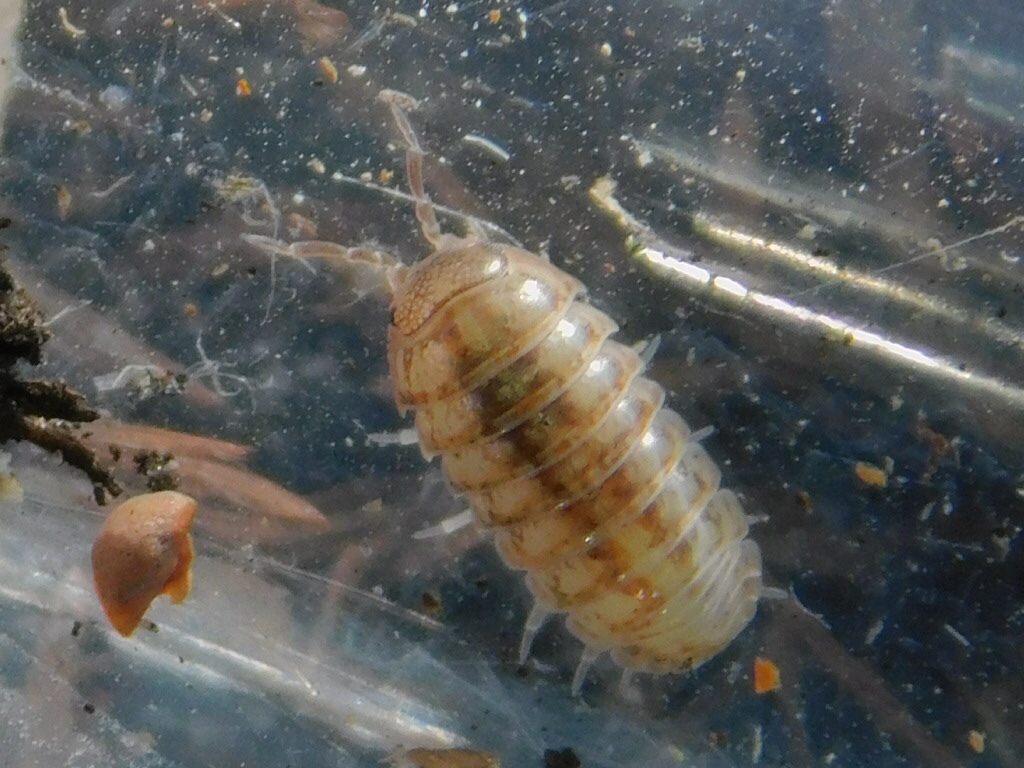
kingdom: Animalia
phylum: Arthropoda
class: Malacostraca
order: Isopoda
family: Armadillidiidae
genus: Armadillidium
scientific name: Armadillidium vulgare
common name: Common pill woodlouse
